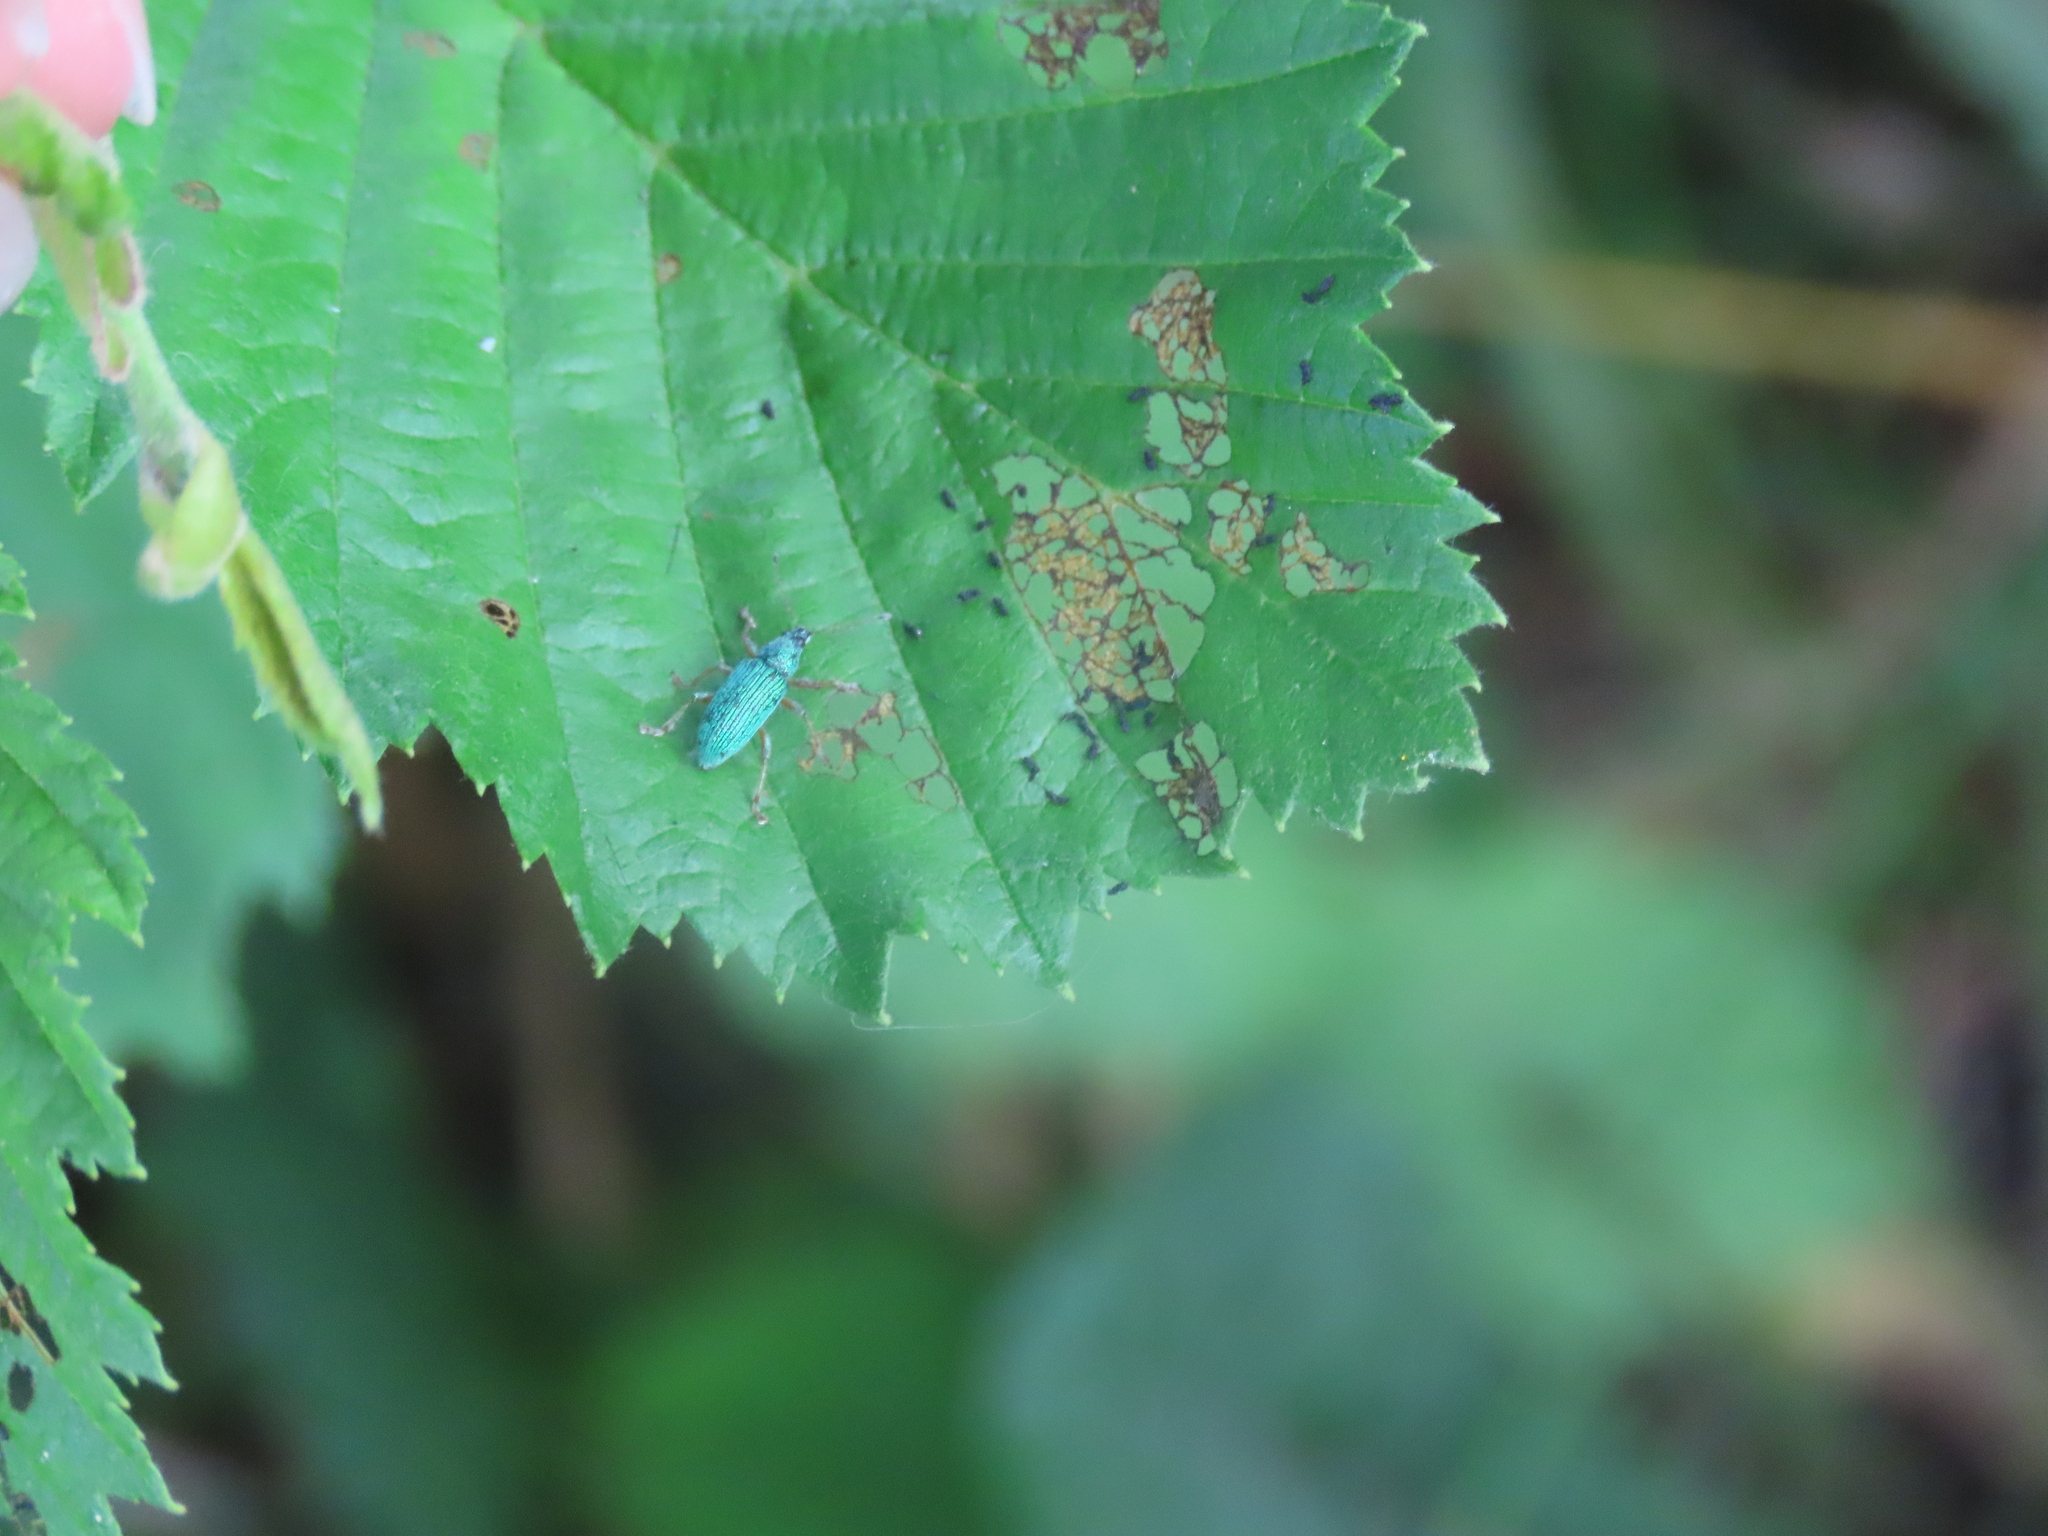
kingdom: Animalia
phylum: Arthropoda
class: Insecta
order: Coleoptera
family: Curculionidae
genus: Polydrusus
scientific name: Polydrusus formosus
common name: Weevil
